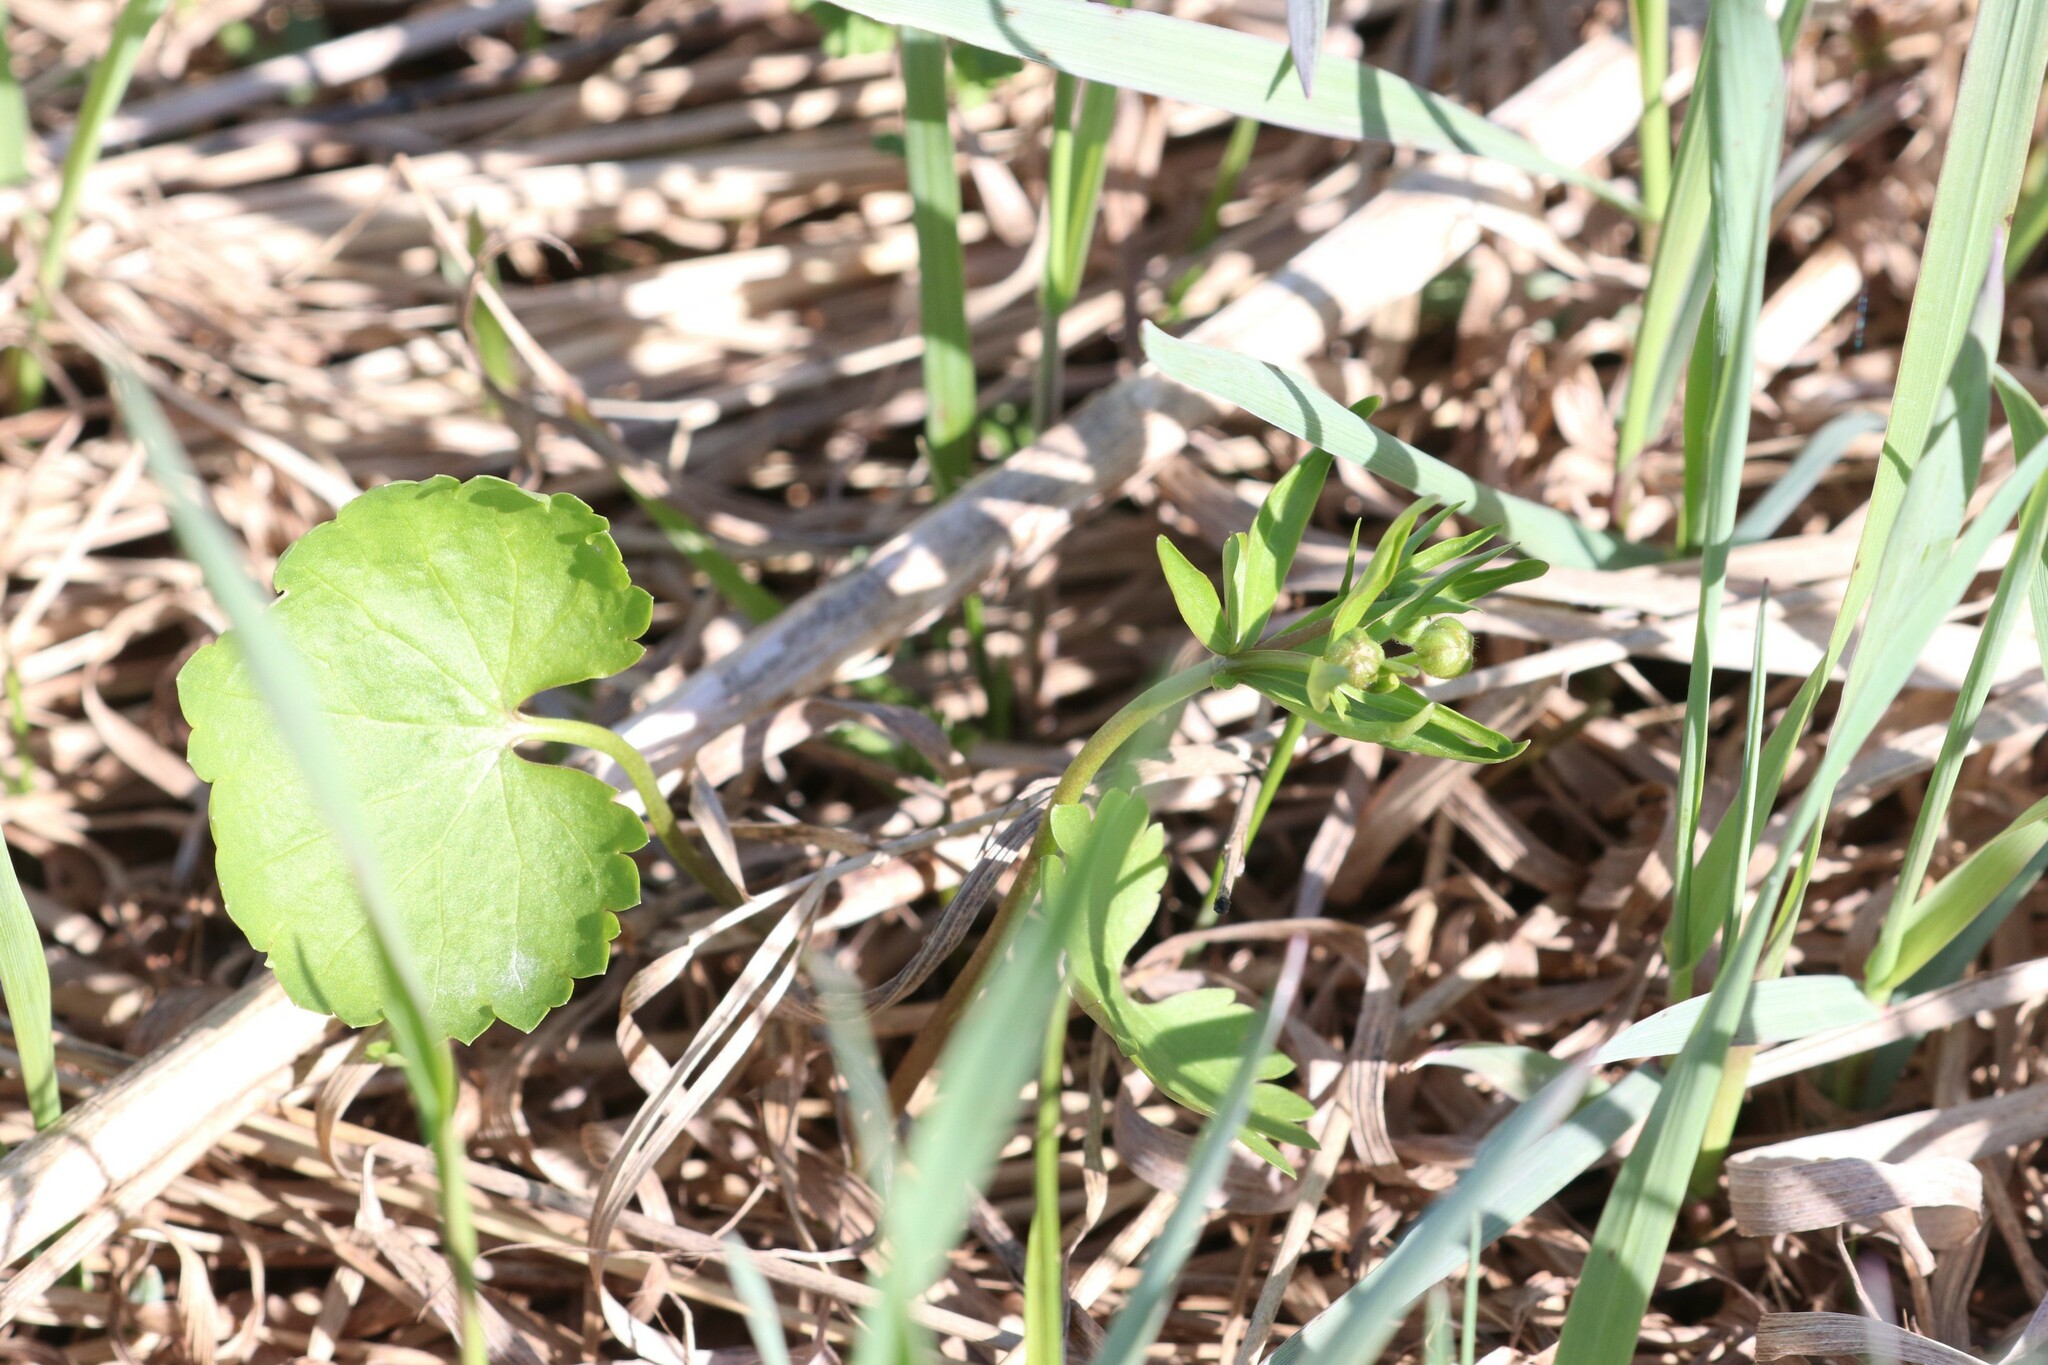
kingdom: Plantae
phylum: Tracheophyta
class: Magnoliopsida
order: Ranunculales
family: Ranunculaceae
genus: Ranunculus
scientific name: Ranunculus cassubicus
